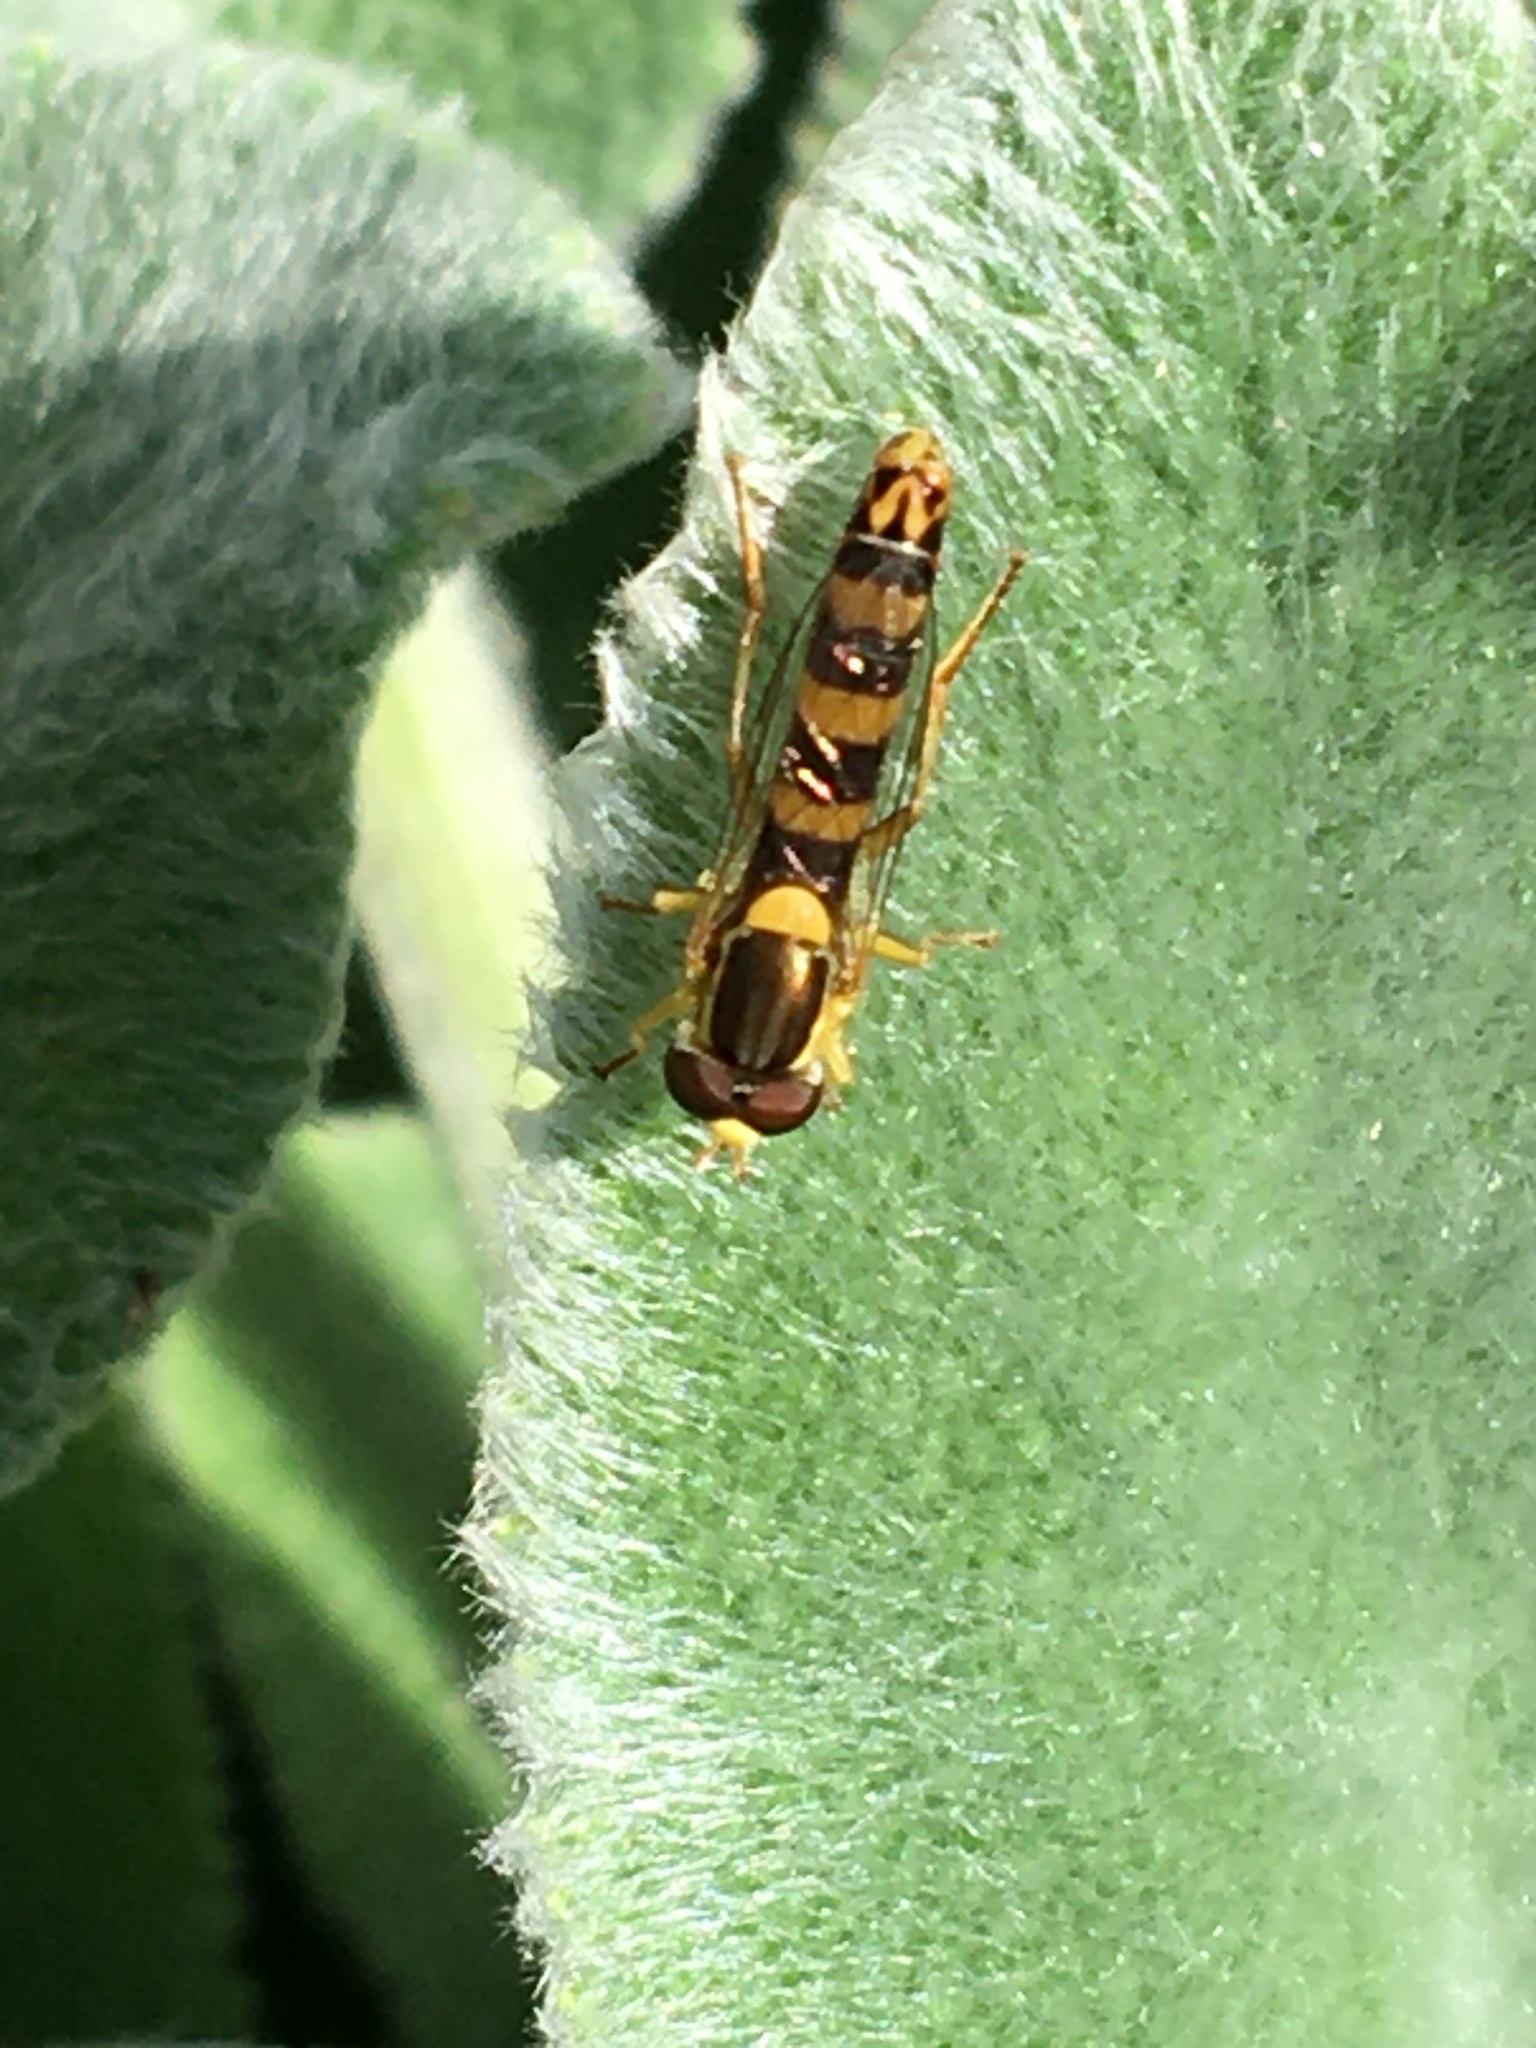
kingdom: Animalia
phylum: Arthropoda
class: Insecta
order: Diptera
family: Syrphidae
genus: Sphaerophoria
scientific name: Sphaerophoria scripta
